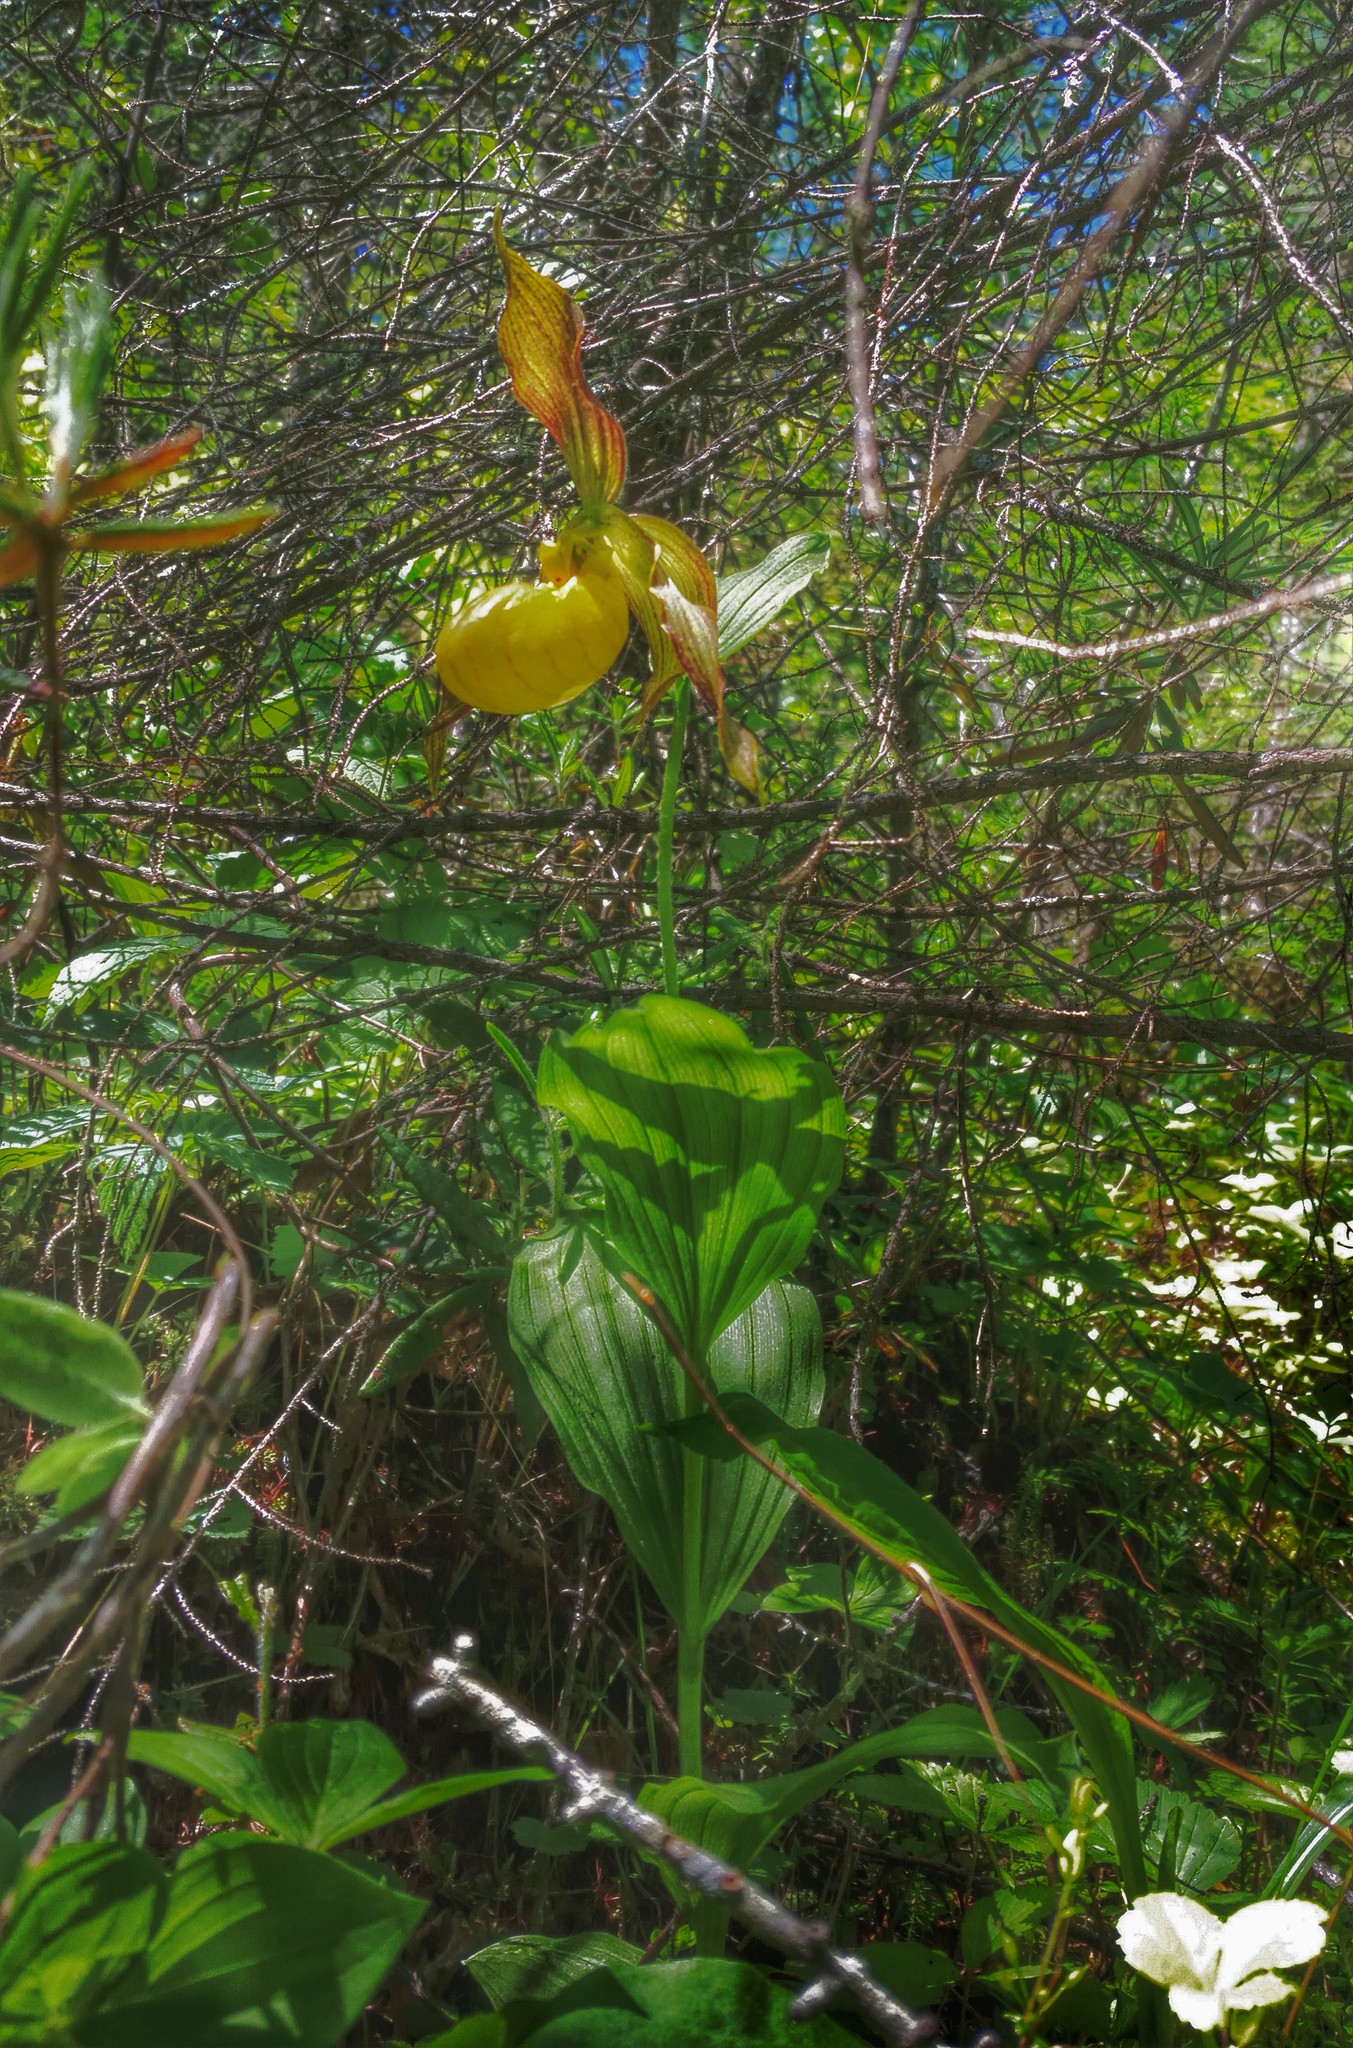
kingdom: Plantae
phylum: Tracheophyta
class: Liliopsida
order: Asparagales
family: Orchidaceae
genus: Cypripedium
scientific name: Cypripedium parviflorum
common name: American yellow lady's-slipper
